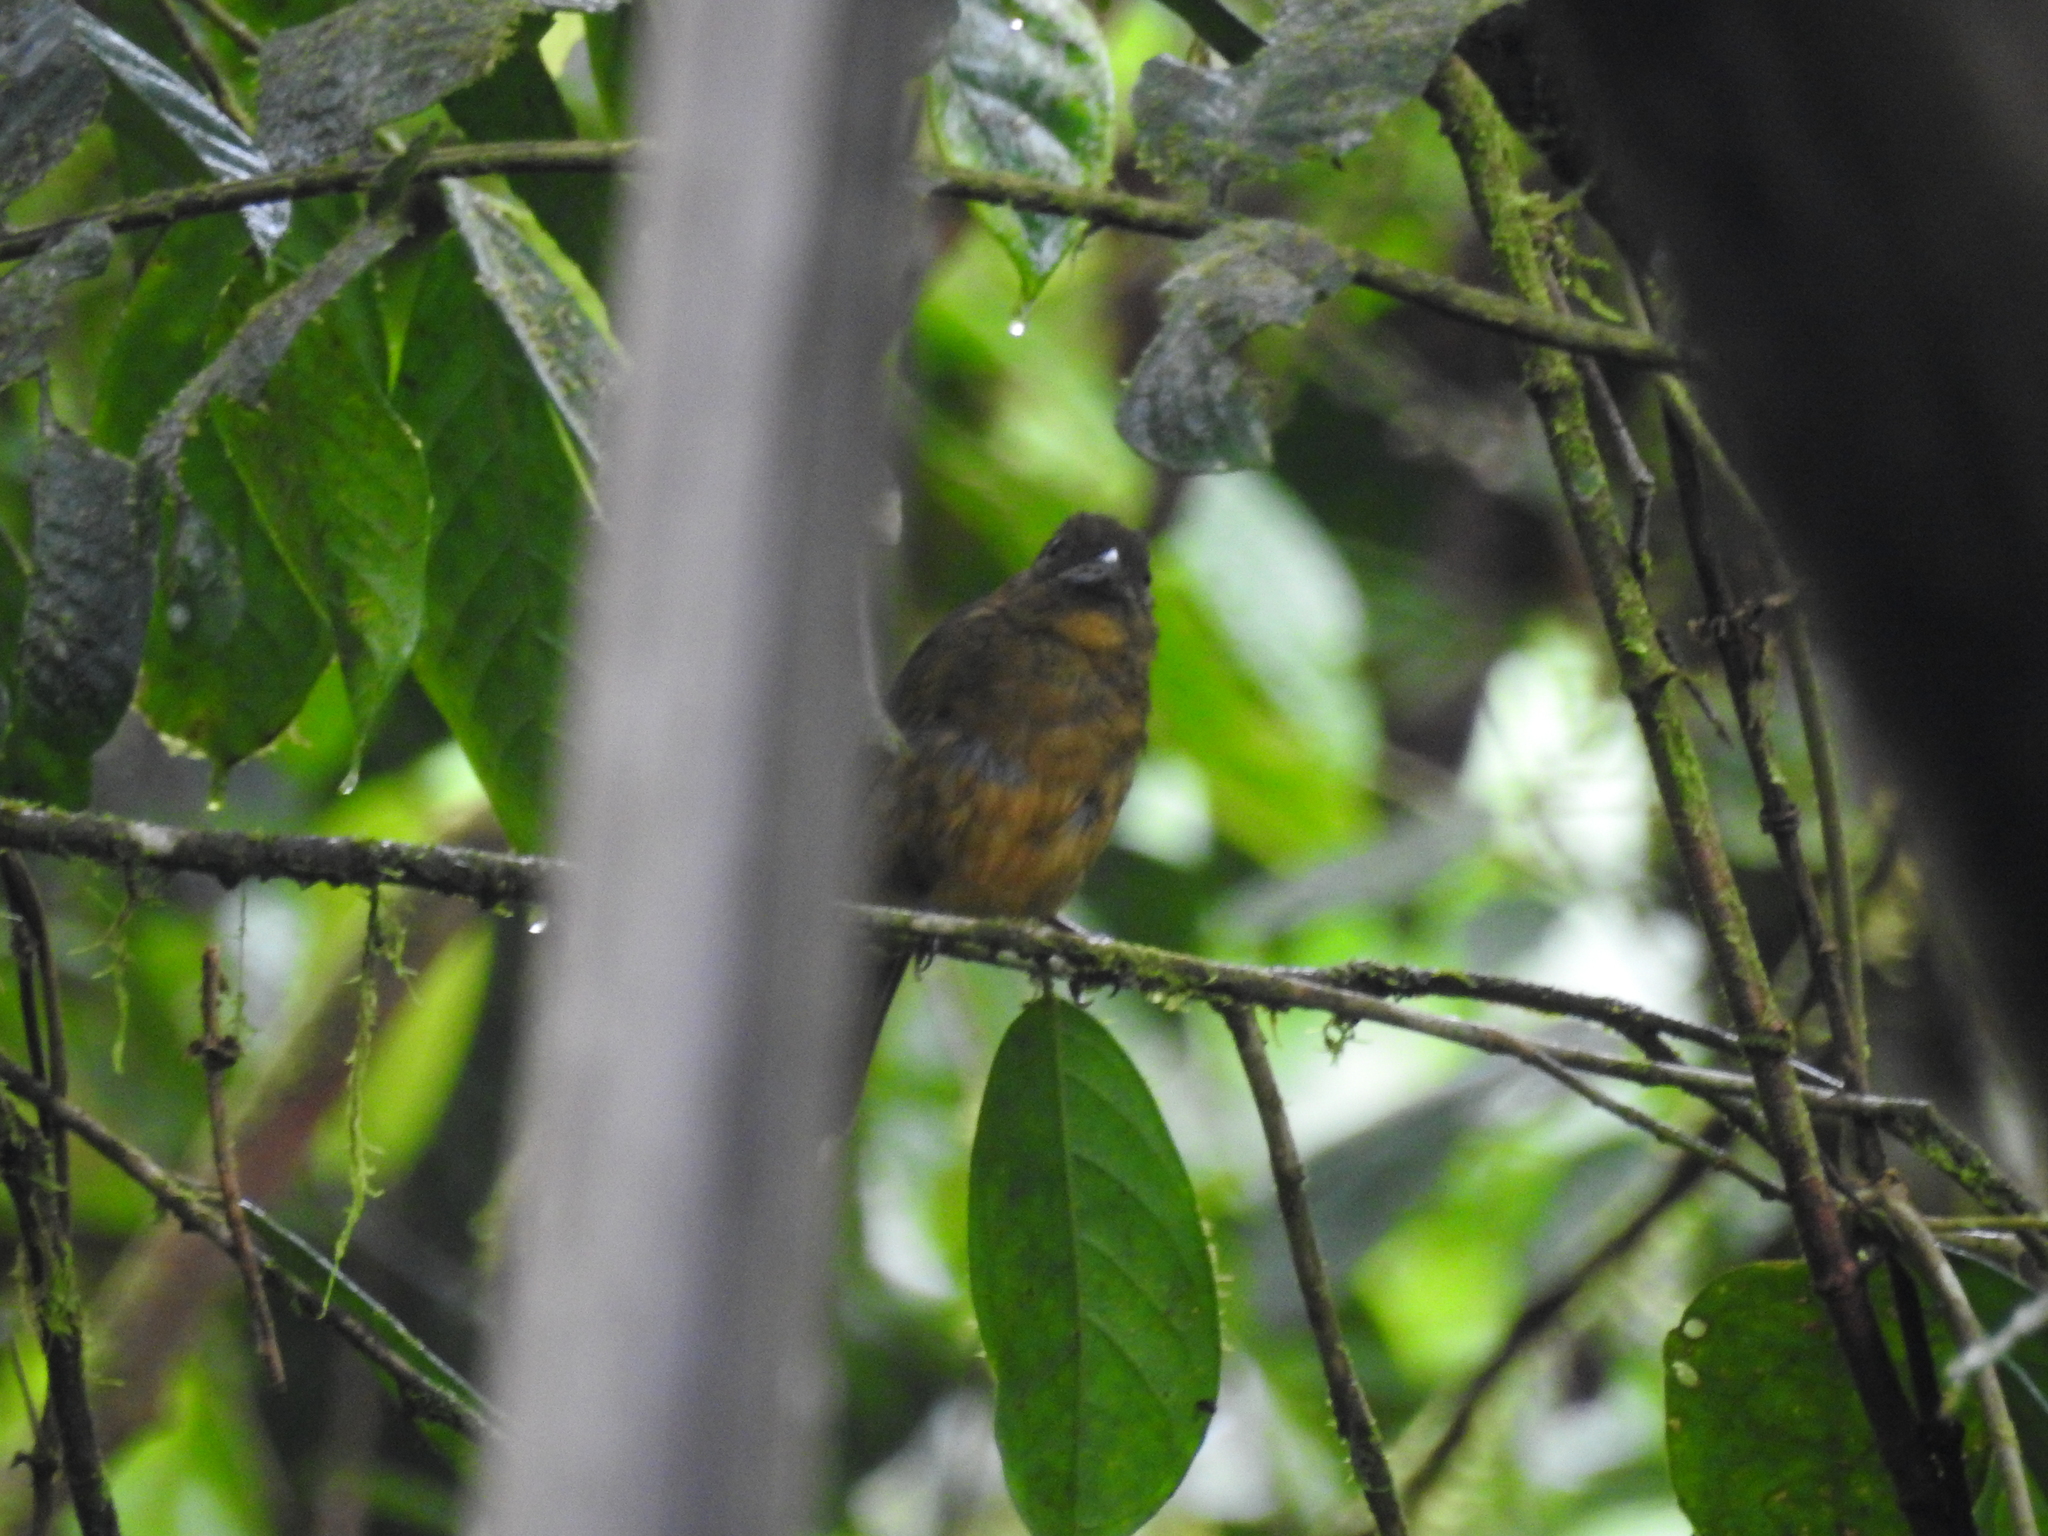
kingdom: Animalia
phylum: Chordata
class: Aves
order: Passeriformes
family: Cardinalidae
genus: Chlorothraupis
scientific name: Chlorothraupis stolzmanni
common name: Ochre-breasted tanager
